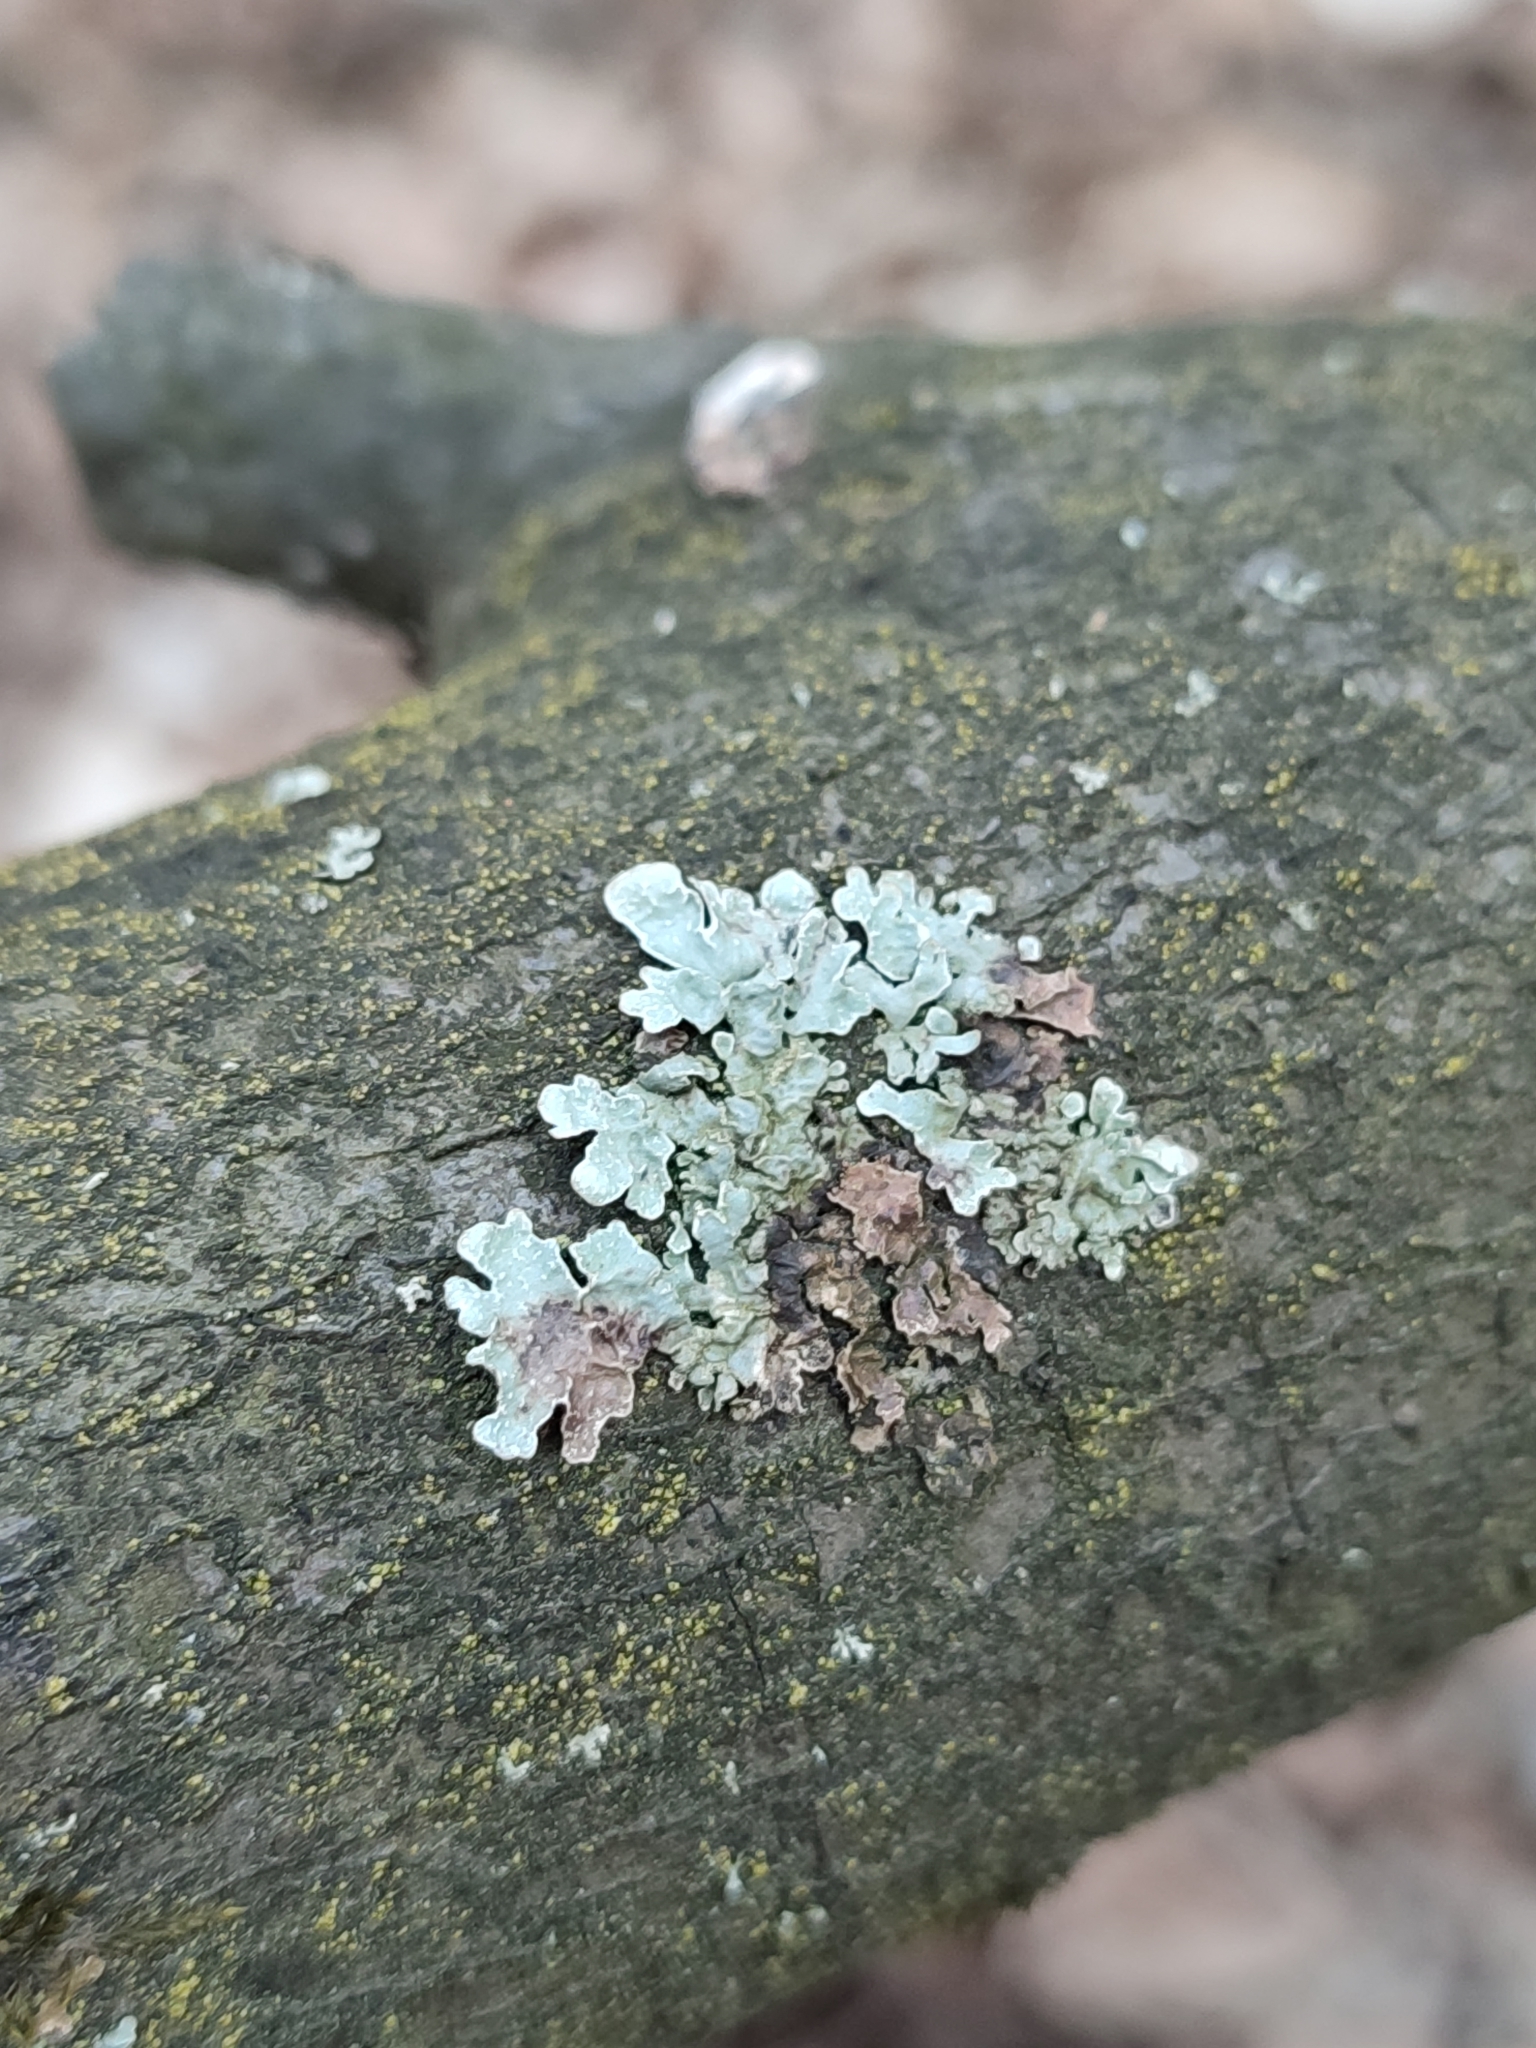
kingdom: Fungi
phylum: Ascomycota
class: Lecanoromycetes
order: Lecanorales
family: Parmeliaceae
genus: Parmelia
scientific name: Parmelia sulcata
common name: Netted shield lichen
